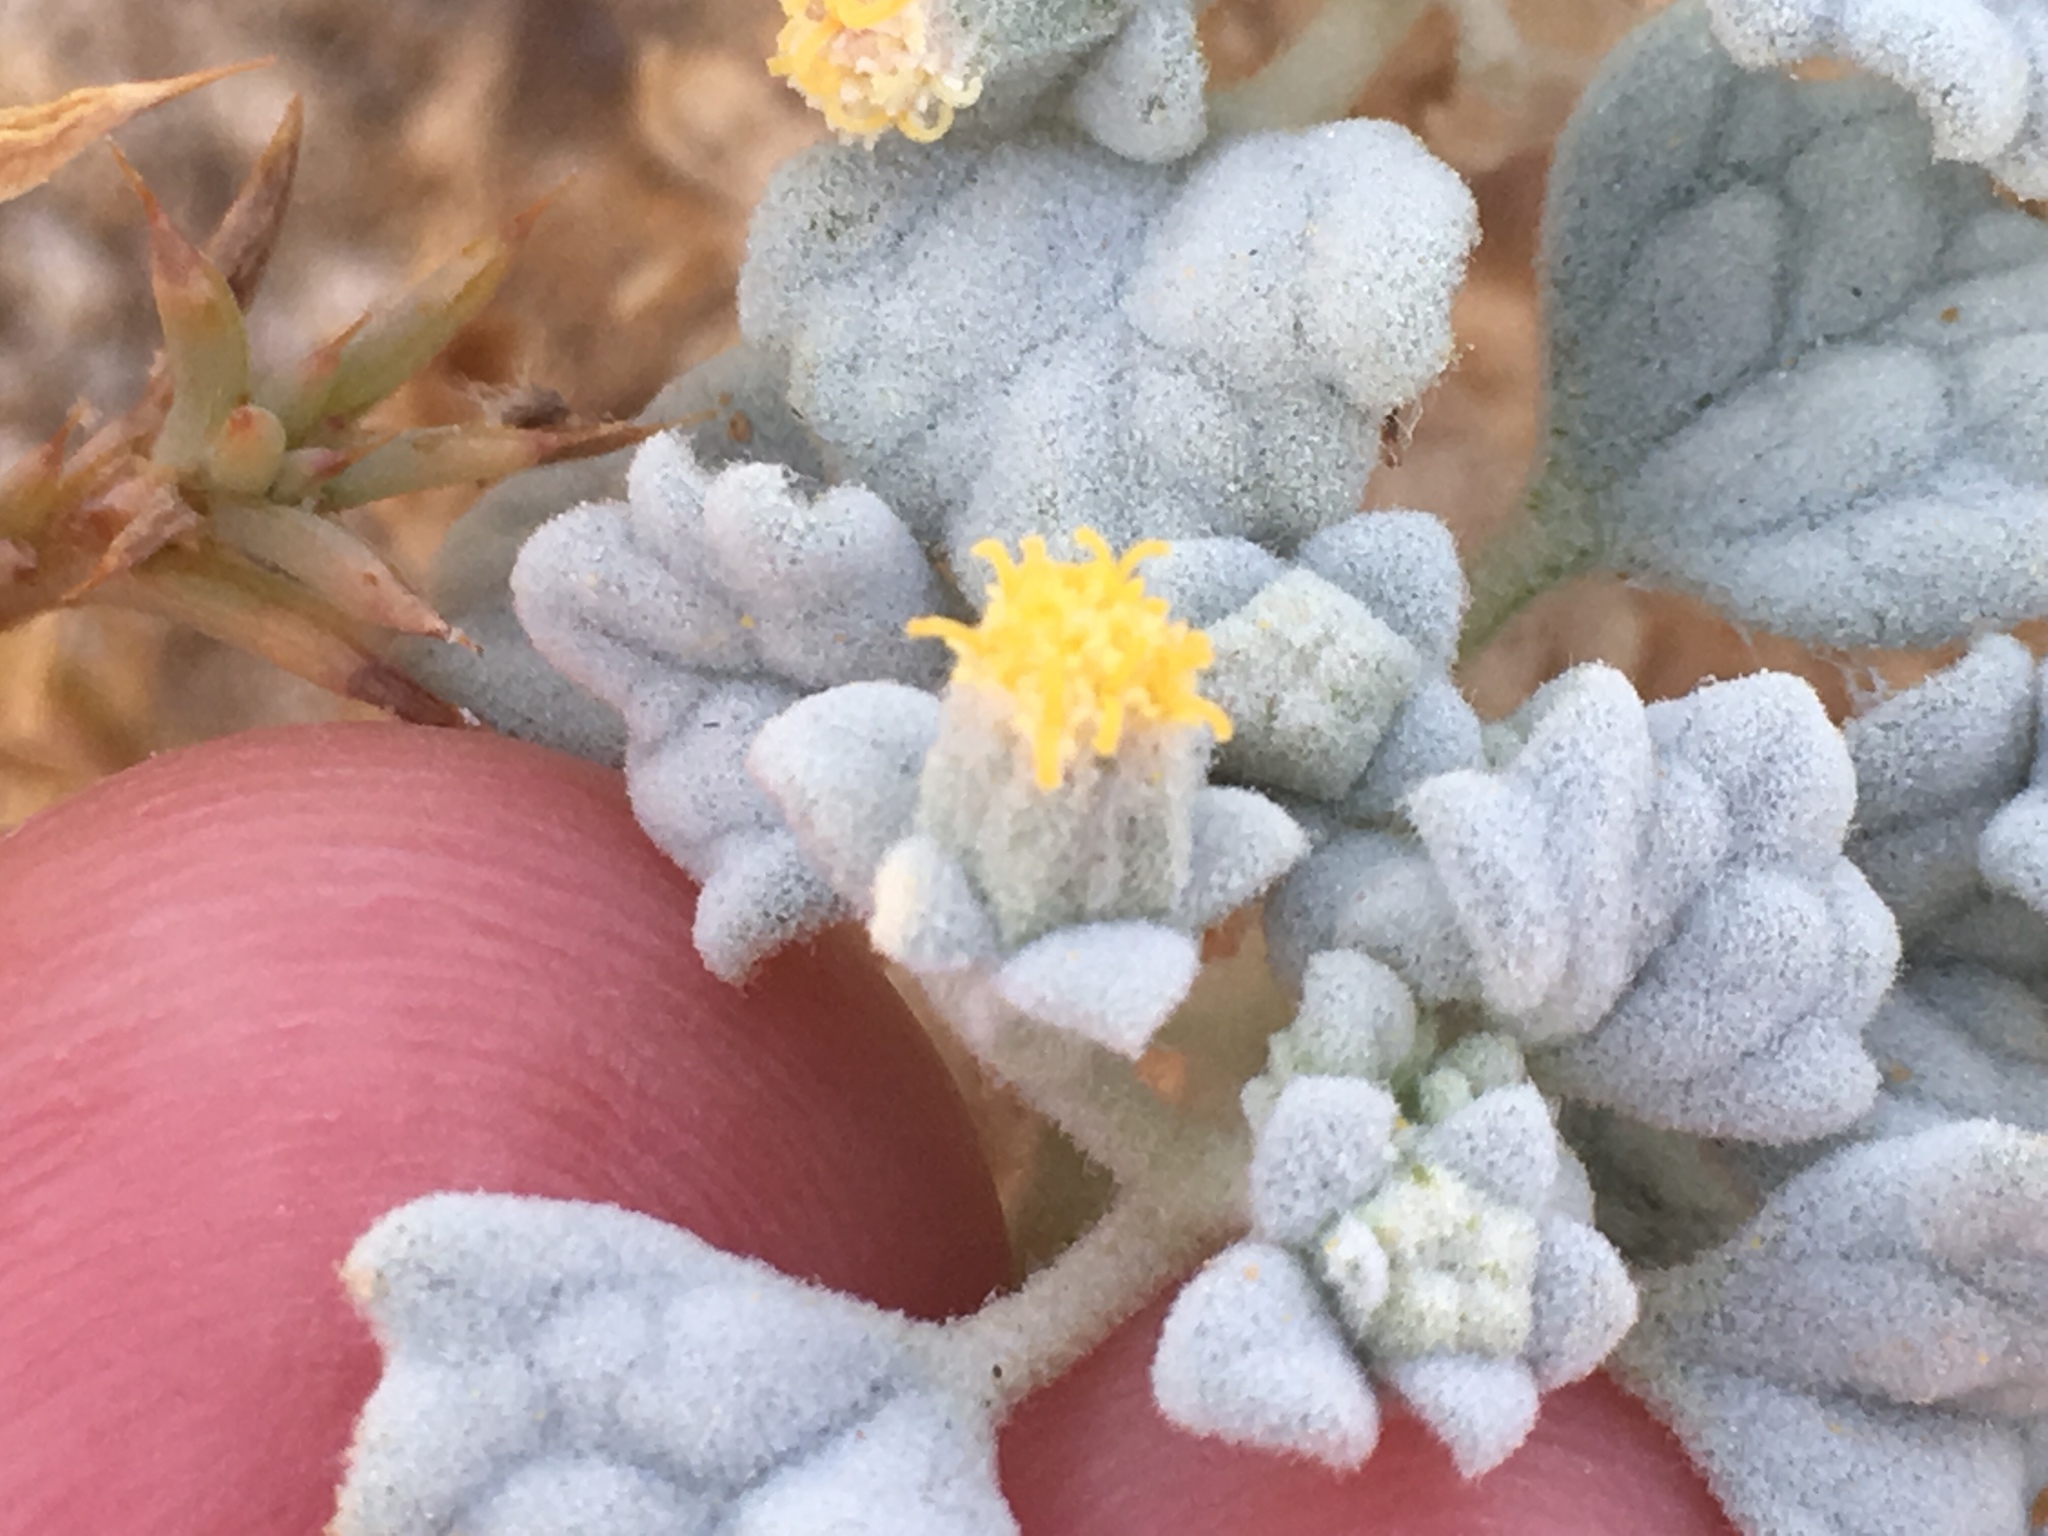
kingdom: Plantae
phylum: Tracheophyta
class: Magnoliopsida
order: Asterales
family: Asteraceae
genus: Psathyrotes
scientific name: Psathyrotes ramosissima
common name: Turtleback
